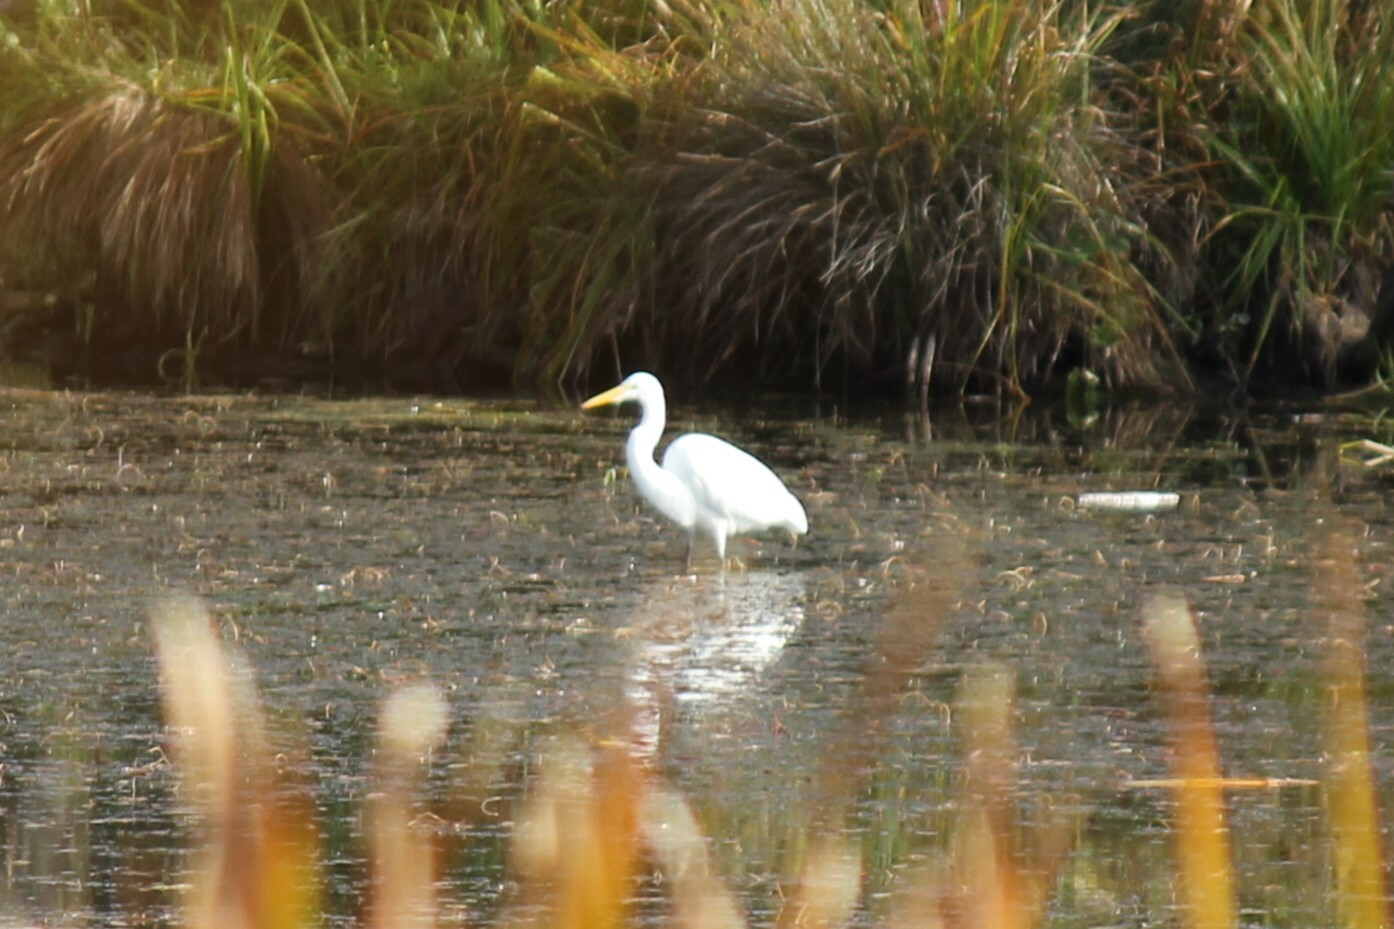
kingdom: Animalia
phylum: Chordata
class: Aves
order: Pelecaniformes
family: Ardeidae
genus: Ardea
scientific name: Ardea alba
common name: Great egret
